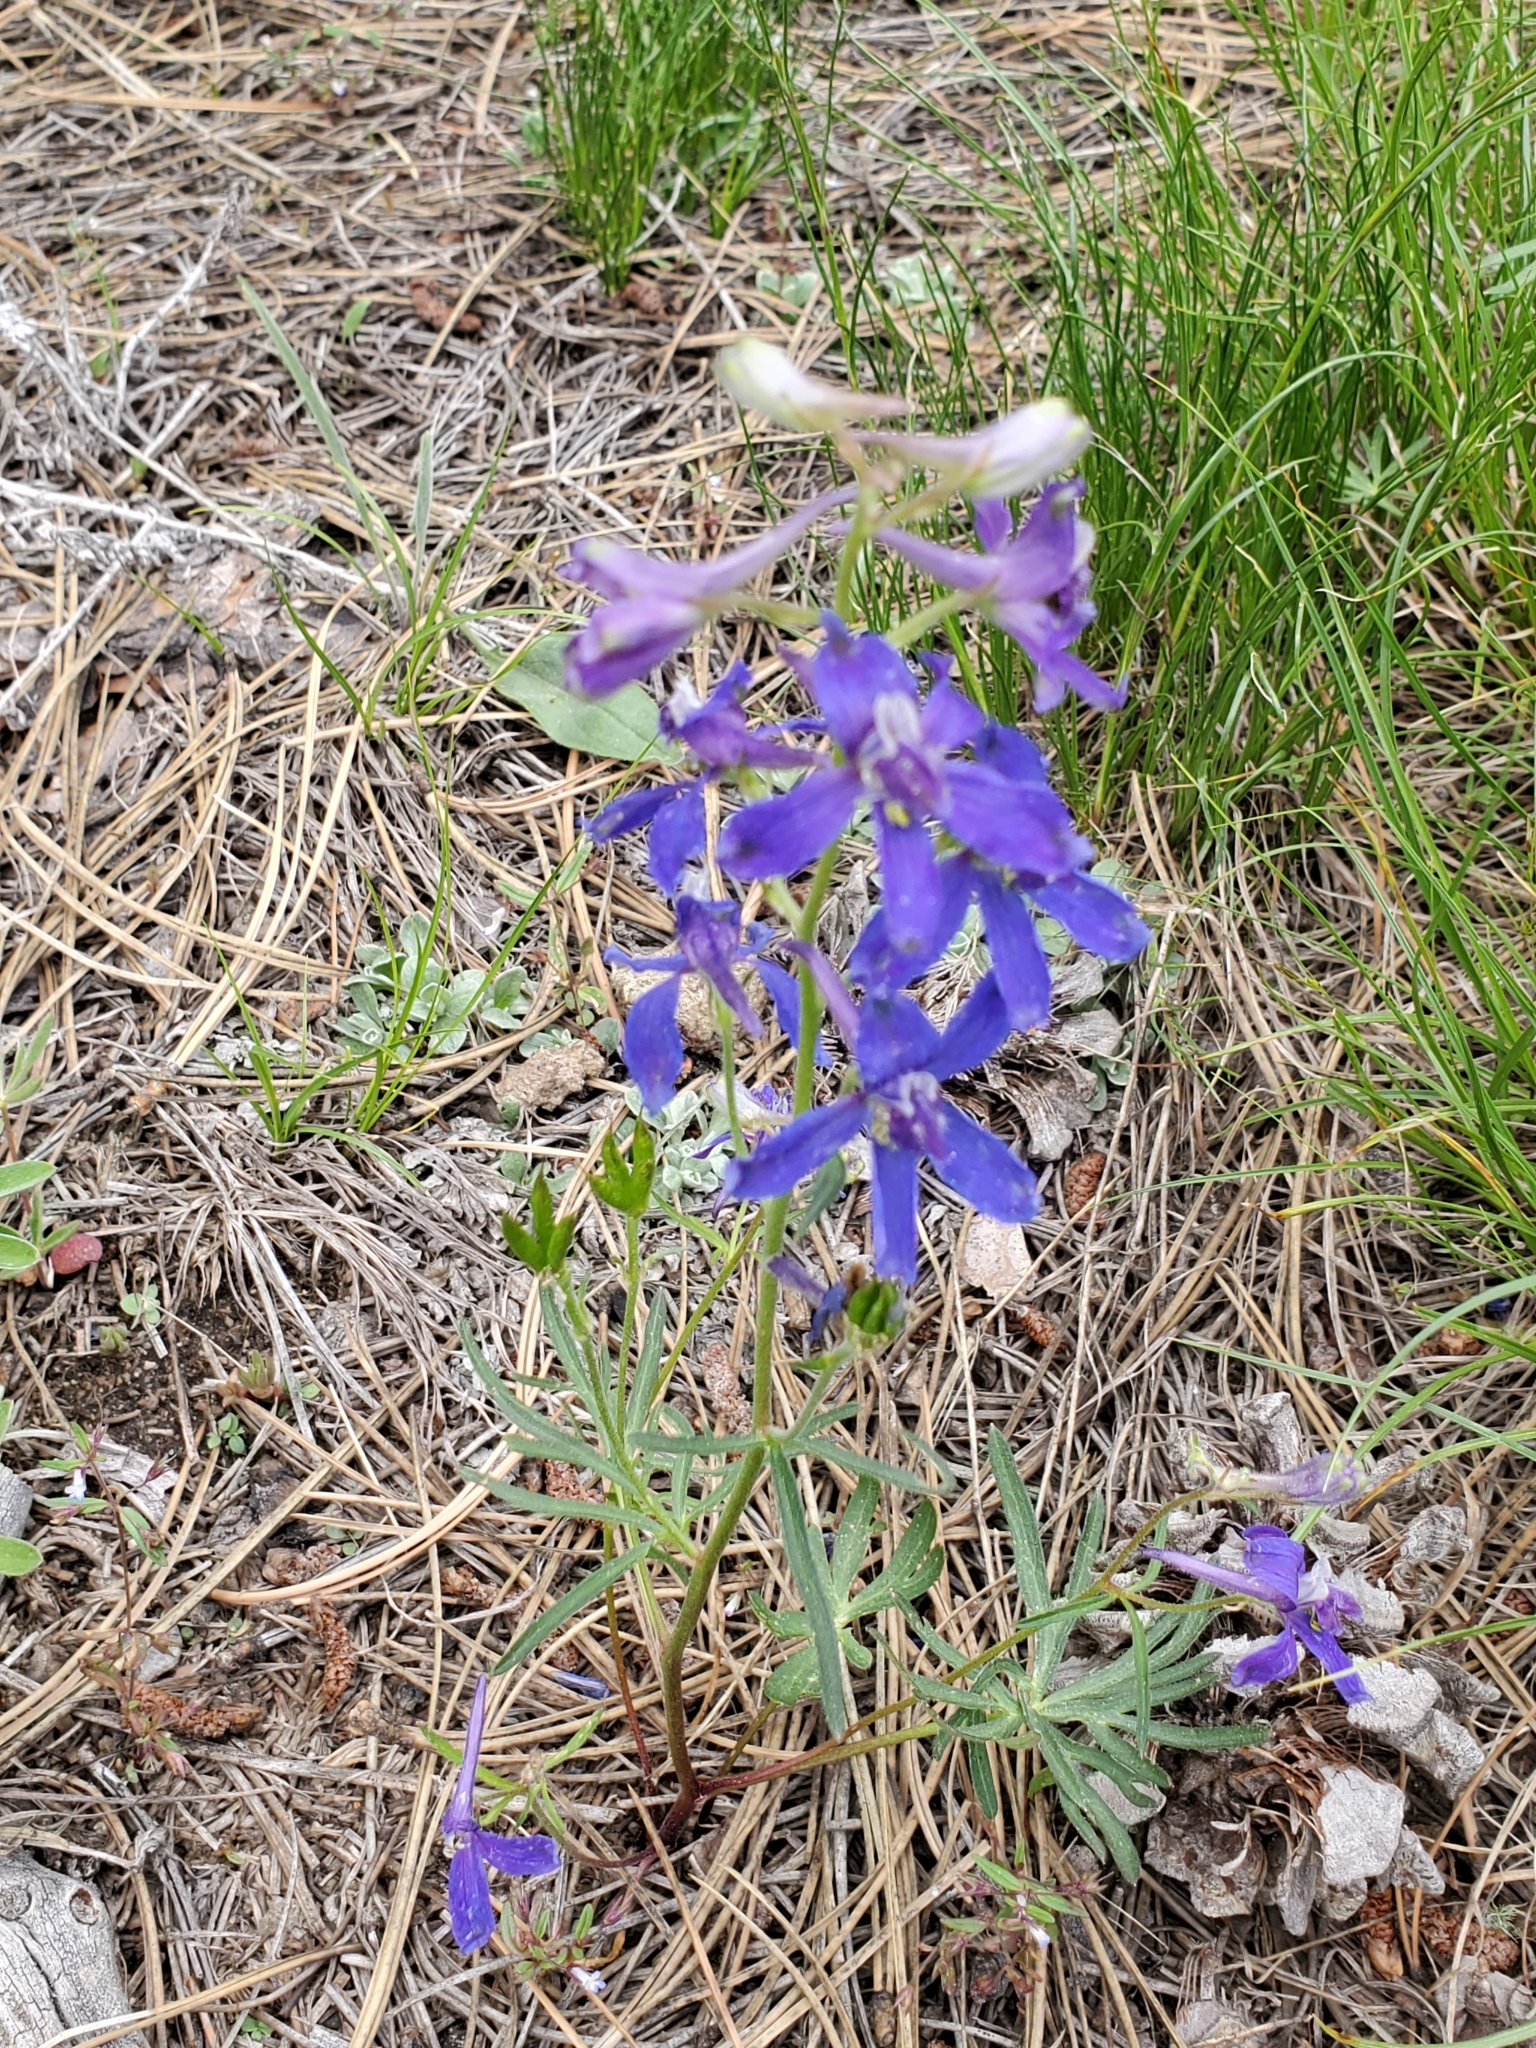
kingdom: Plantae
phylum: Tracheophyta
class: Magnoliopsida
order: Ranunculales
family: Ranunculaceae
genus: Delphinium
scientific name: Delphinium nuttallianum
